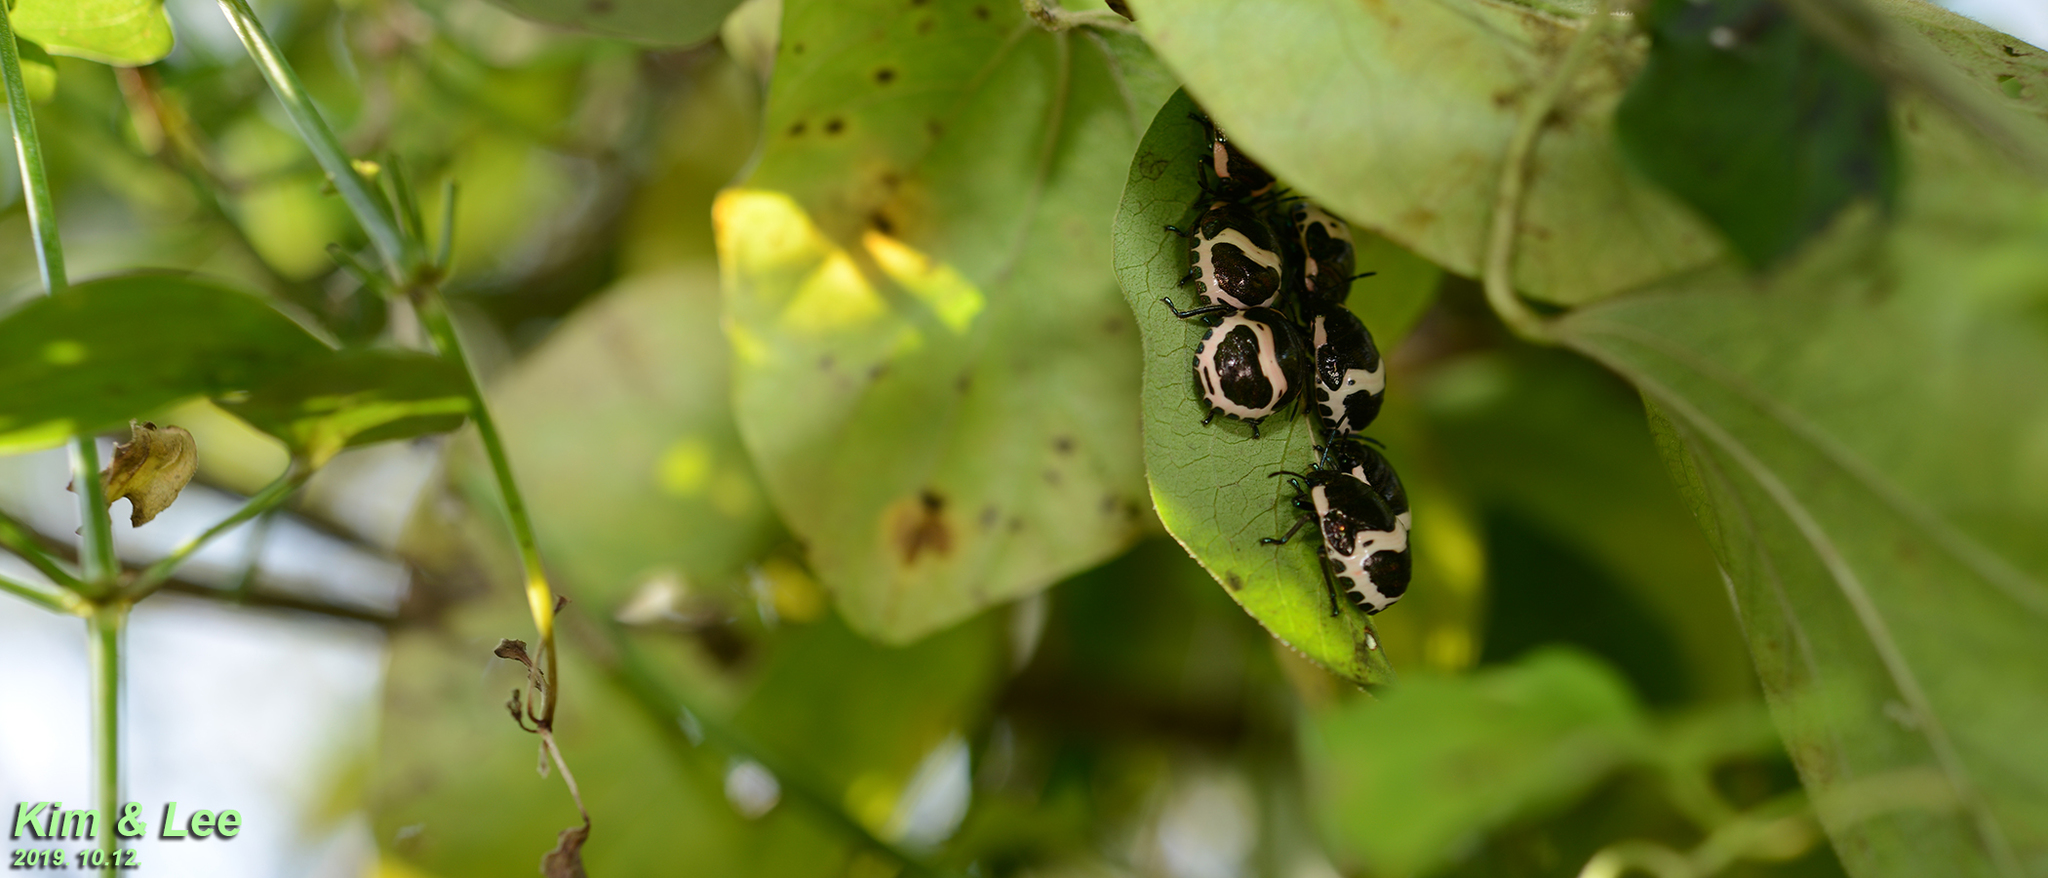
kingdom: Animalia
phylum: Arthropoda
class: Insecta
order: Hemiptera
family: Scutelleridae
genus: Poecilocoris
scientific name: Poecilocoris lewisi
